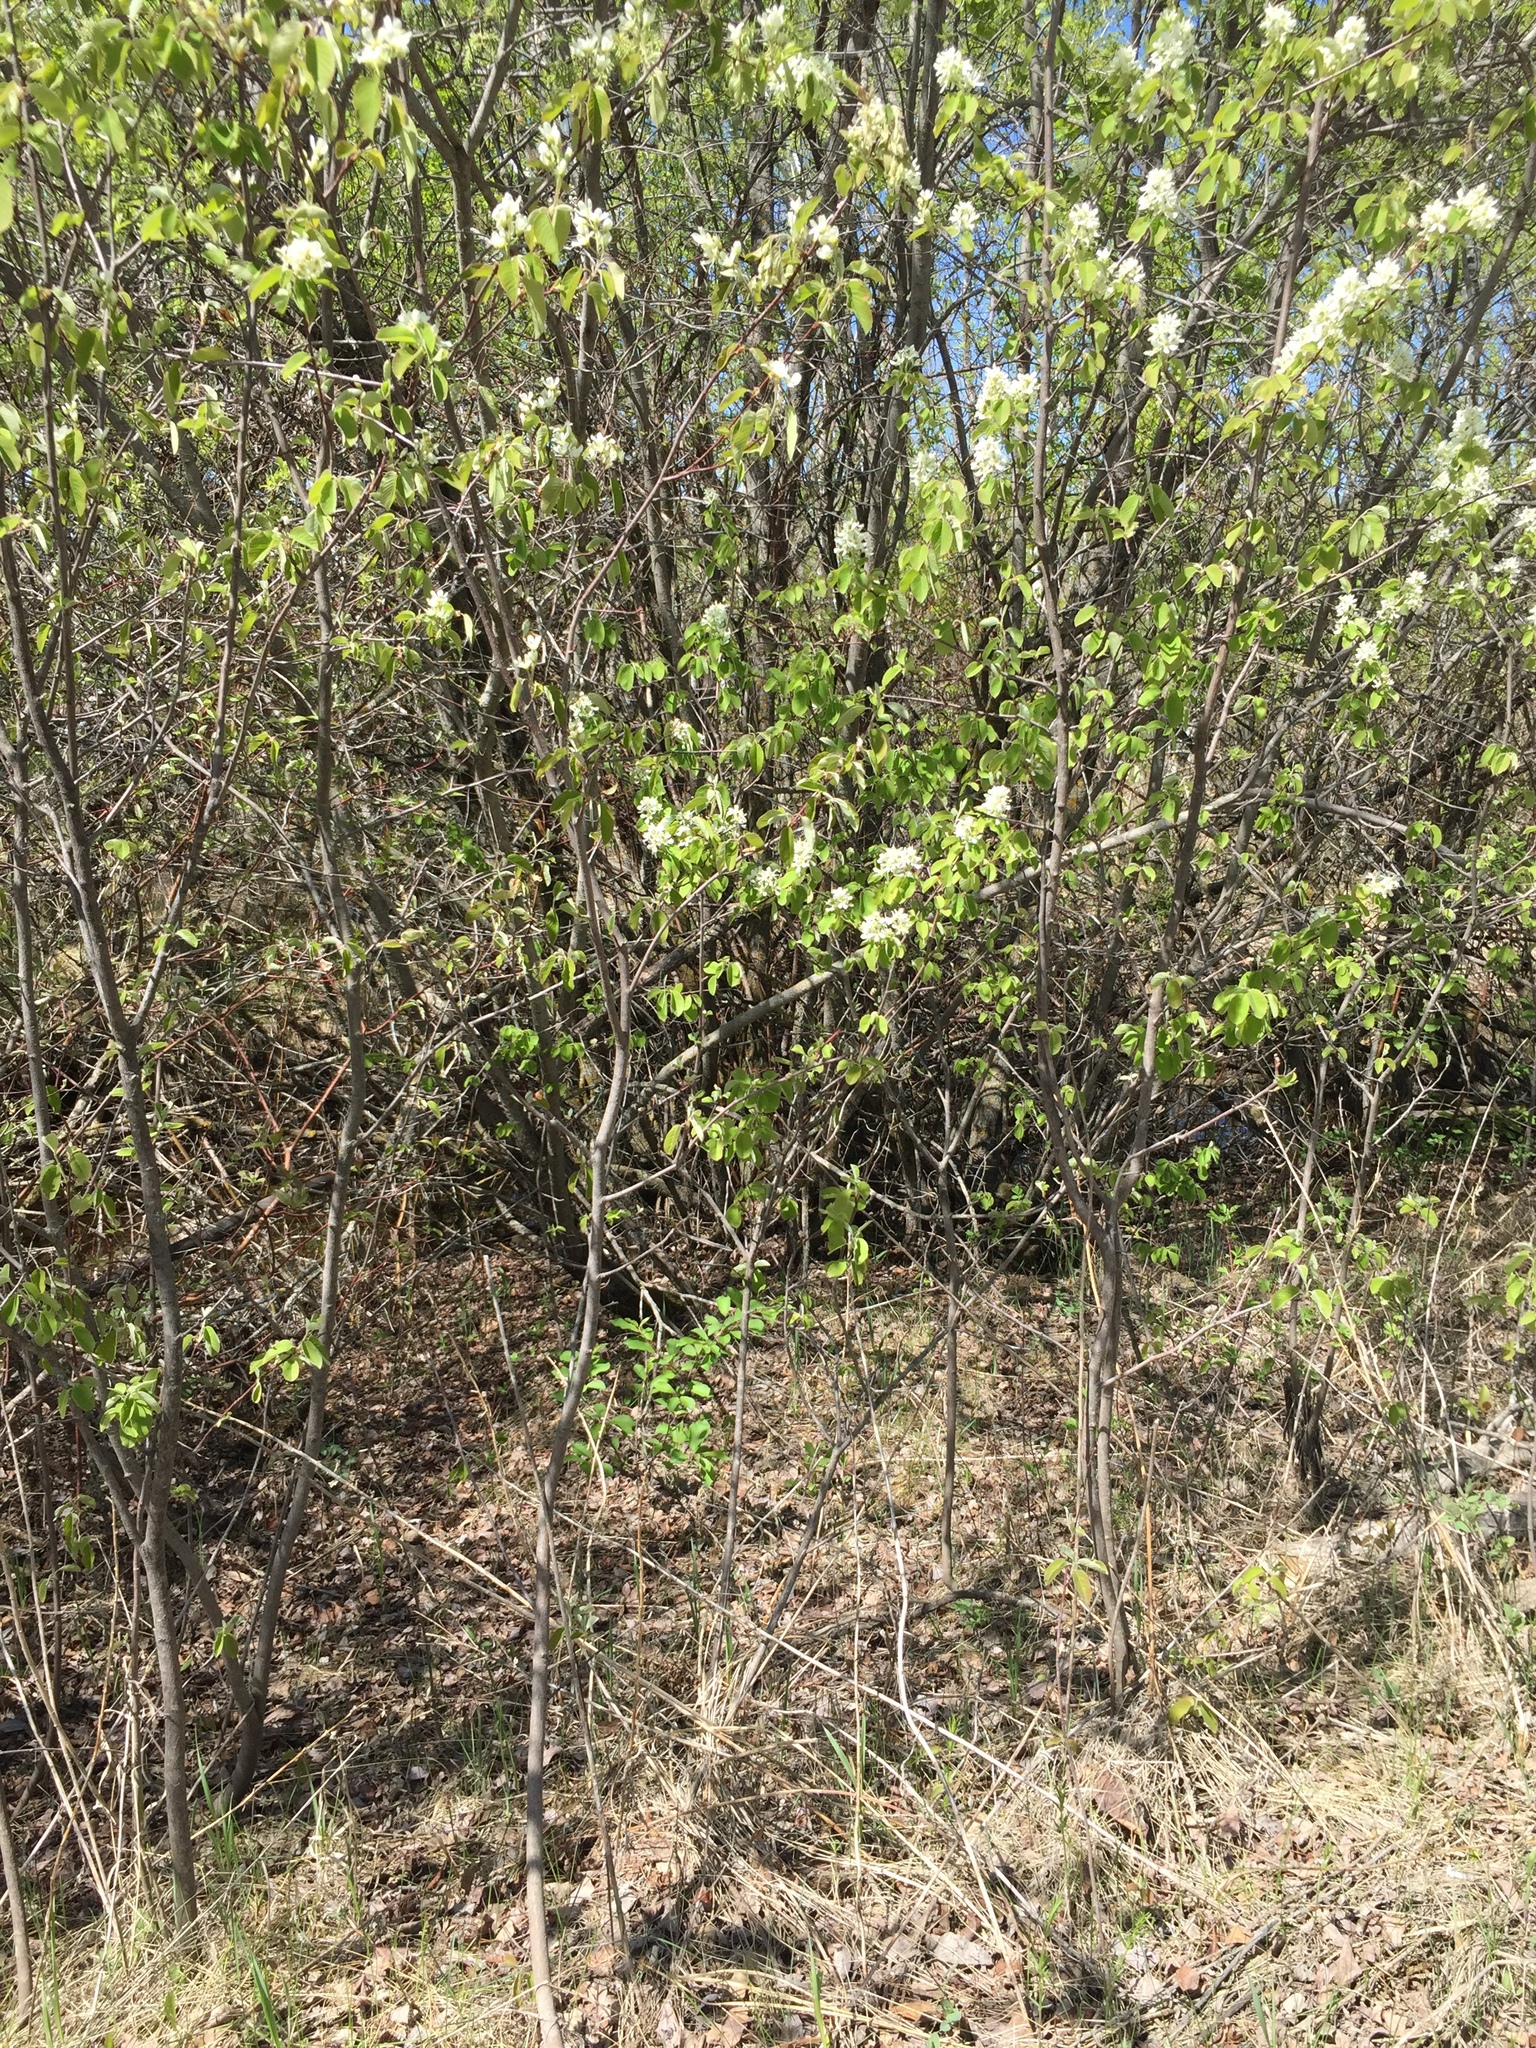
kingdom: Plantae
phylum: Tracheophyta
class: Magnoliopsida
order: Rosales
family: Rosaceae
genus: Amelanchier
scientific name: Amelanchier alnifolia
